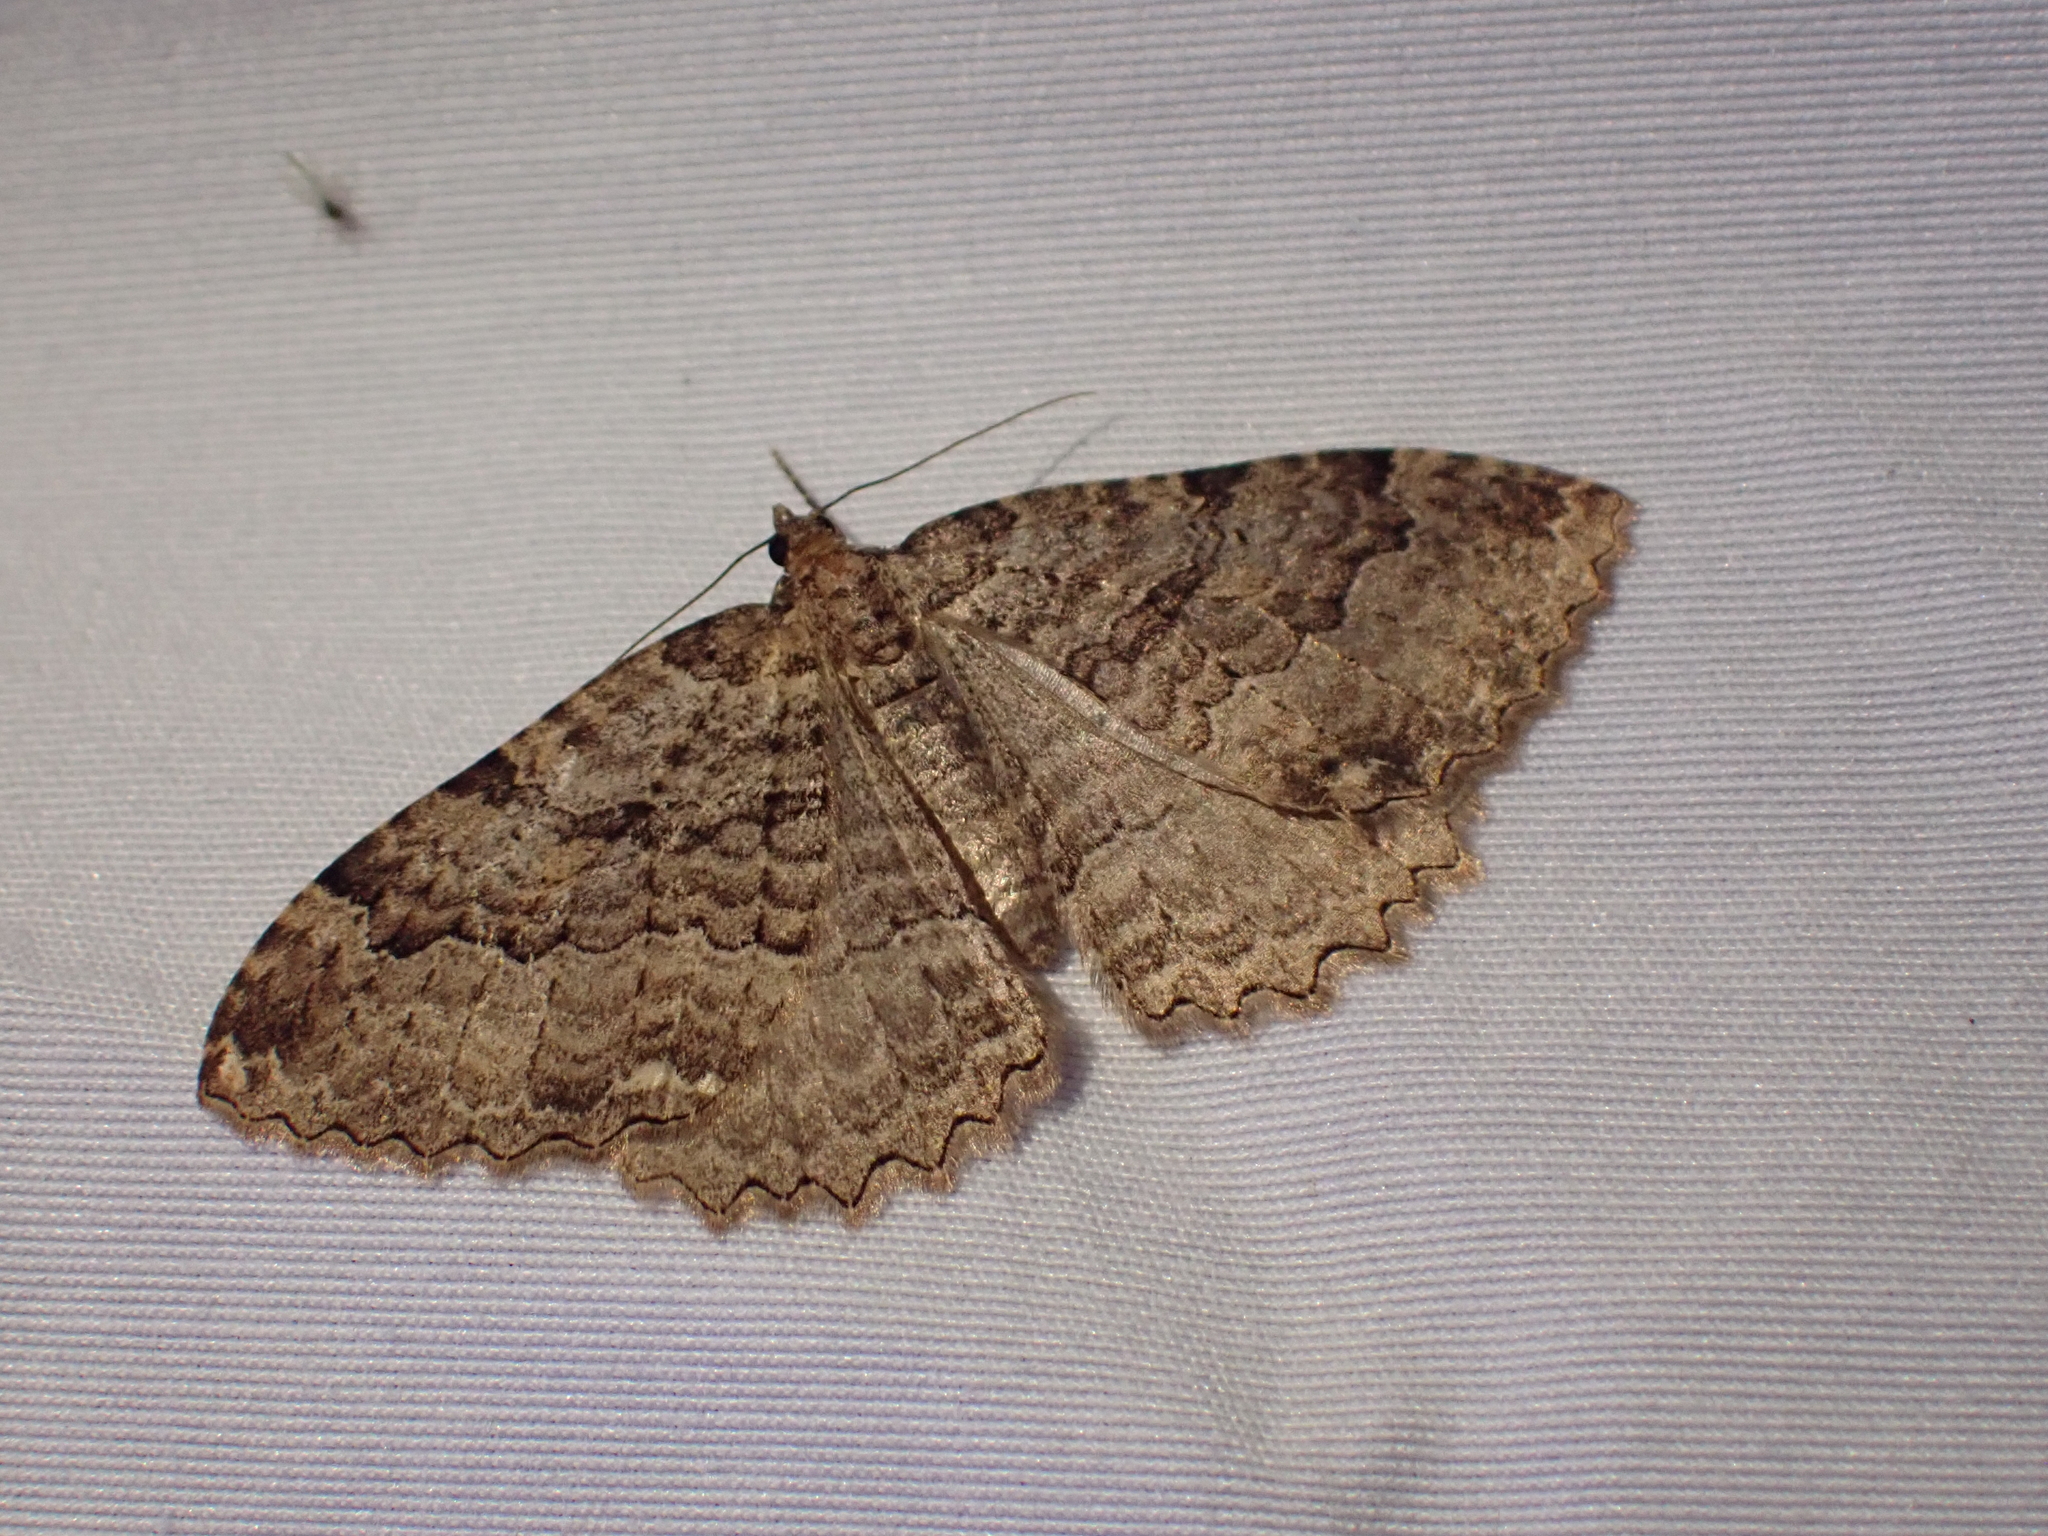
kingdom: Animalia
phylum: Arthropoda
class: Insecta
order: Lepidoptera
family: Geometridae
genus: Triphosa
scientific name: Triphosa haesitata
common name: Tissue moth
